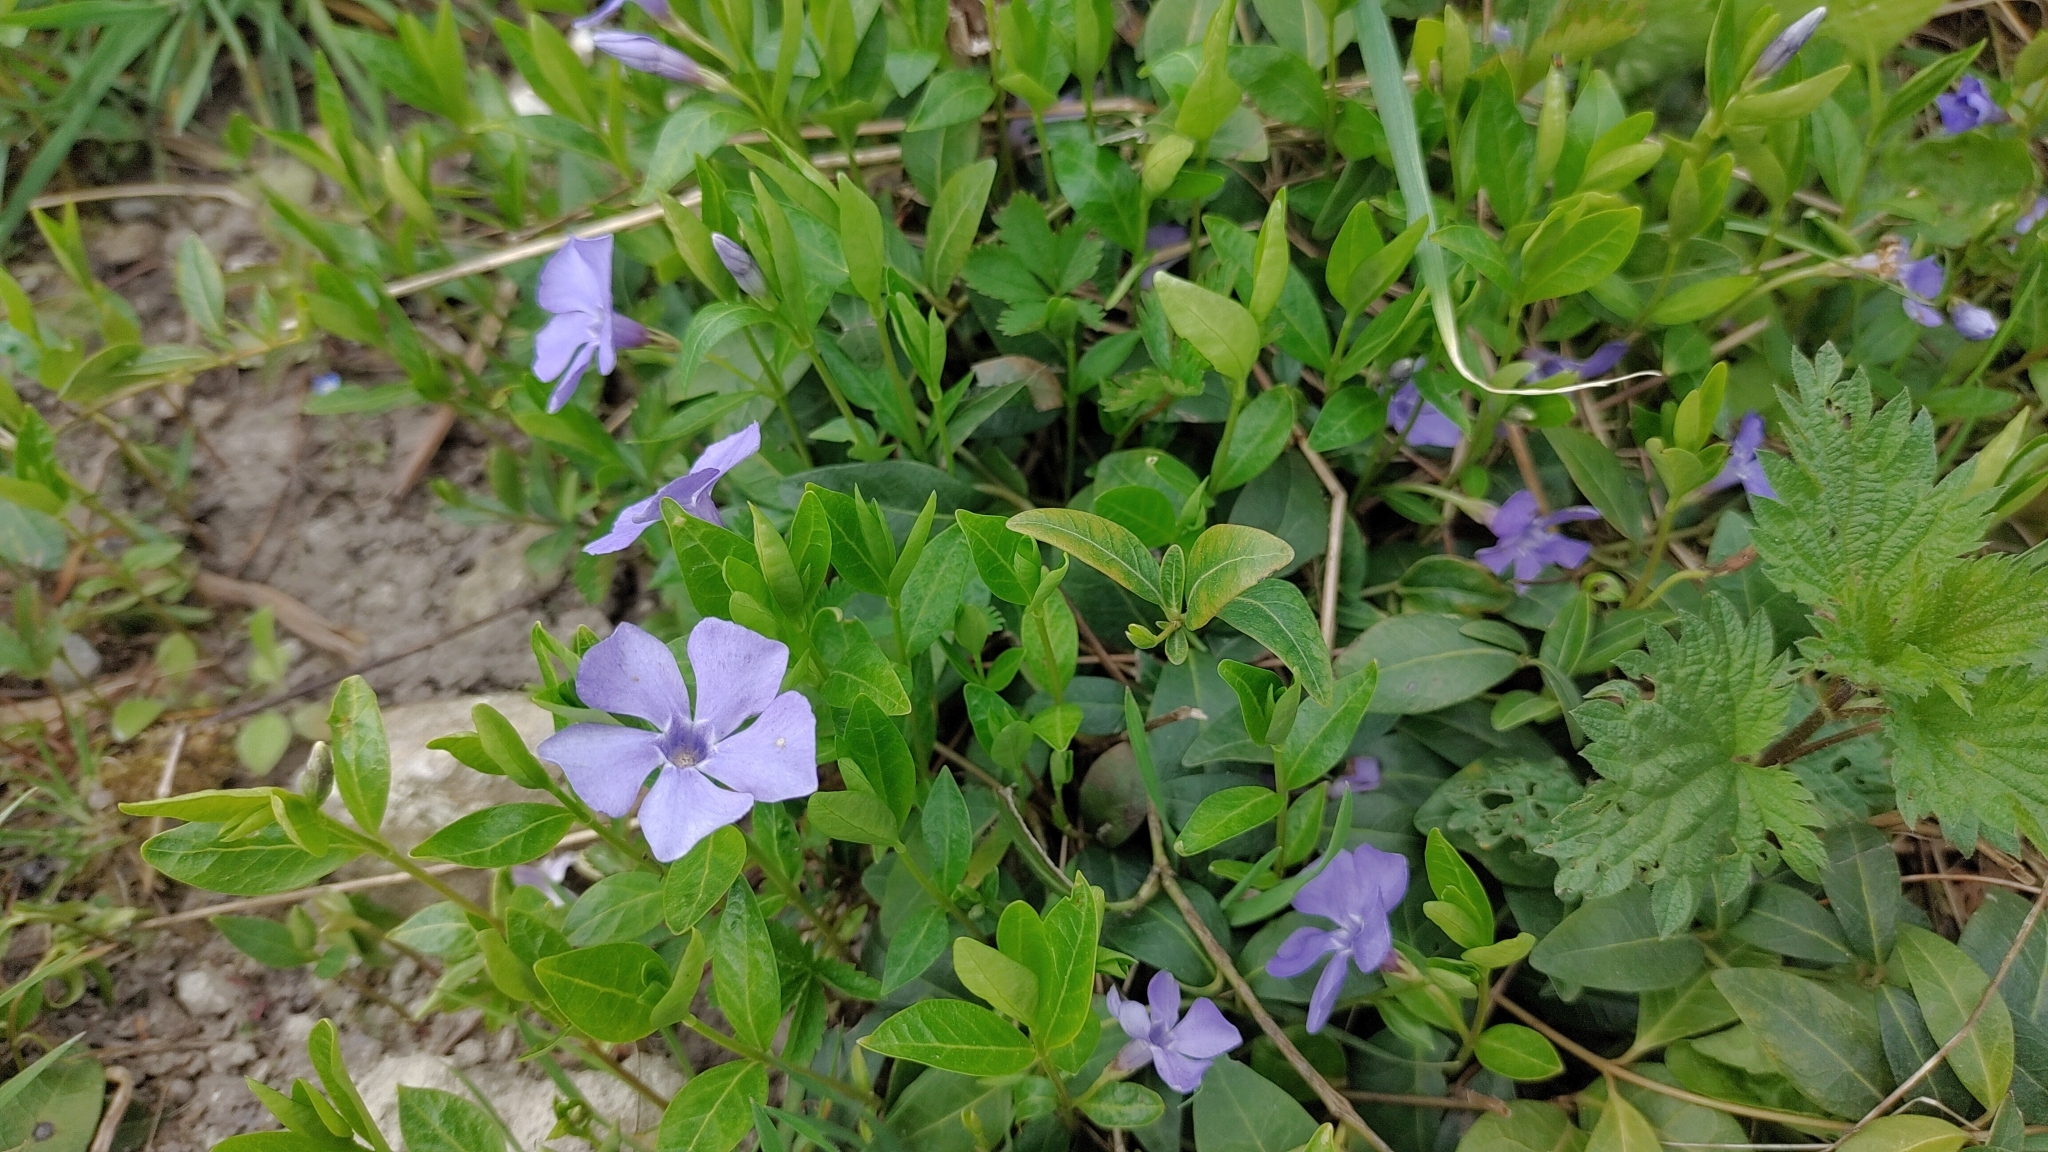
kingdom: Plantae
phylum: Tracheophyta
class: Magnoliopsida
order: Gentianales
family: Apocynaceae
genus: Vinca
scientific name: Vinca minor
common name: Lesser periwinkle
